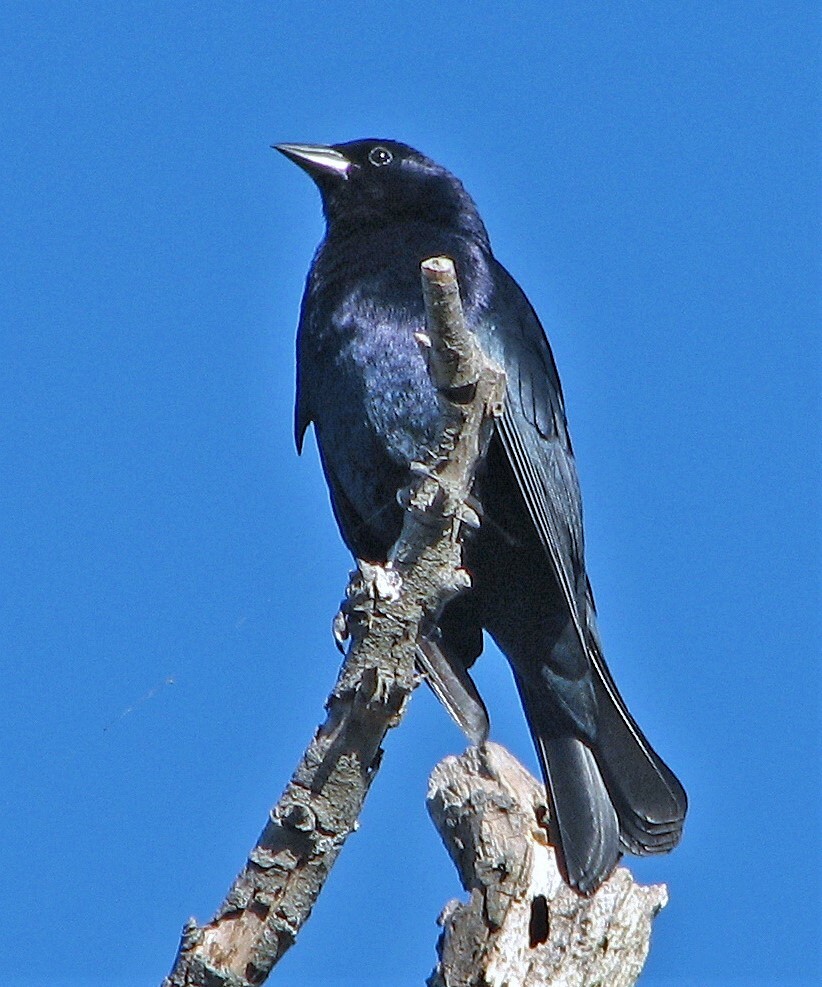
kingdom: Animalia
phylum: Chordata
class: Aves
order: Passeriformes
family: Icteridae
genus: Molothrus
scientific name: Molothrus bonariensis
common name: Shiny cowbird
